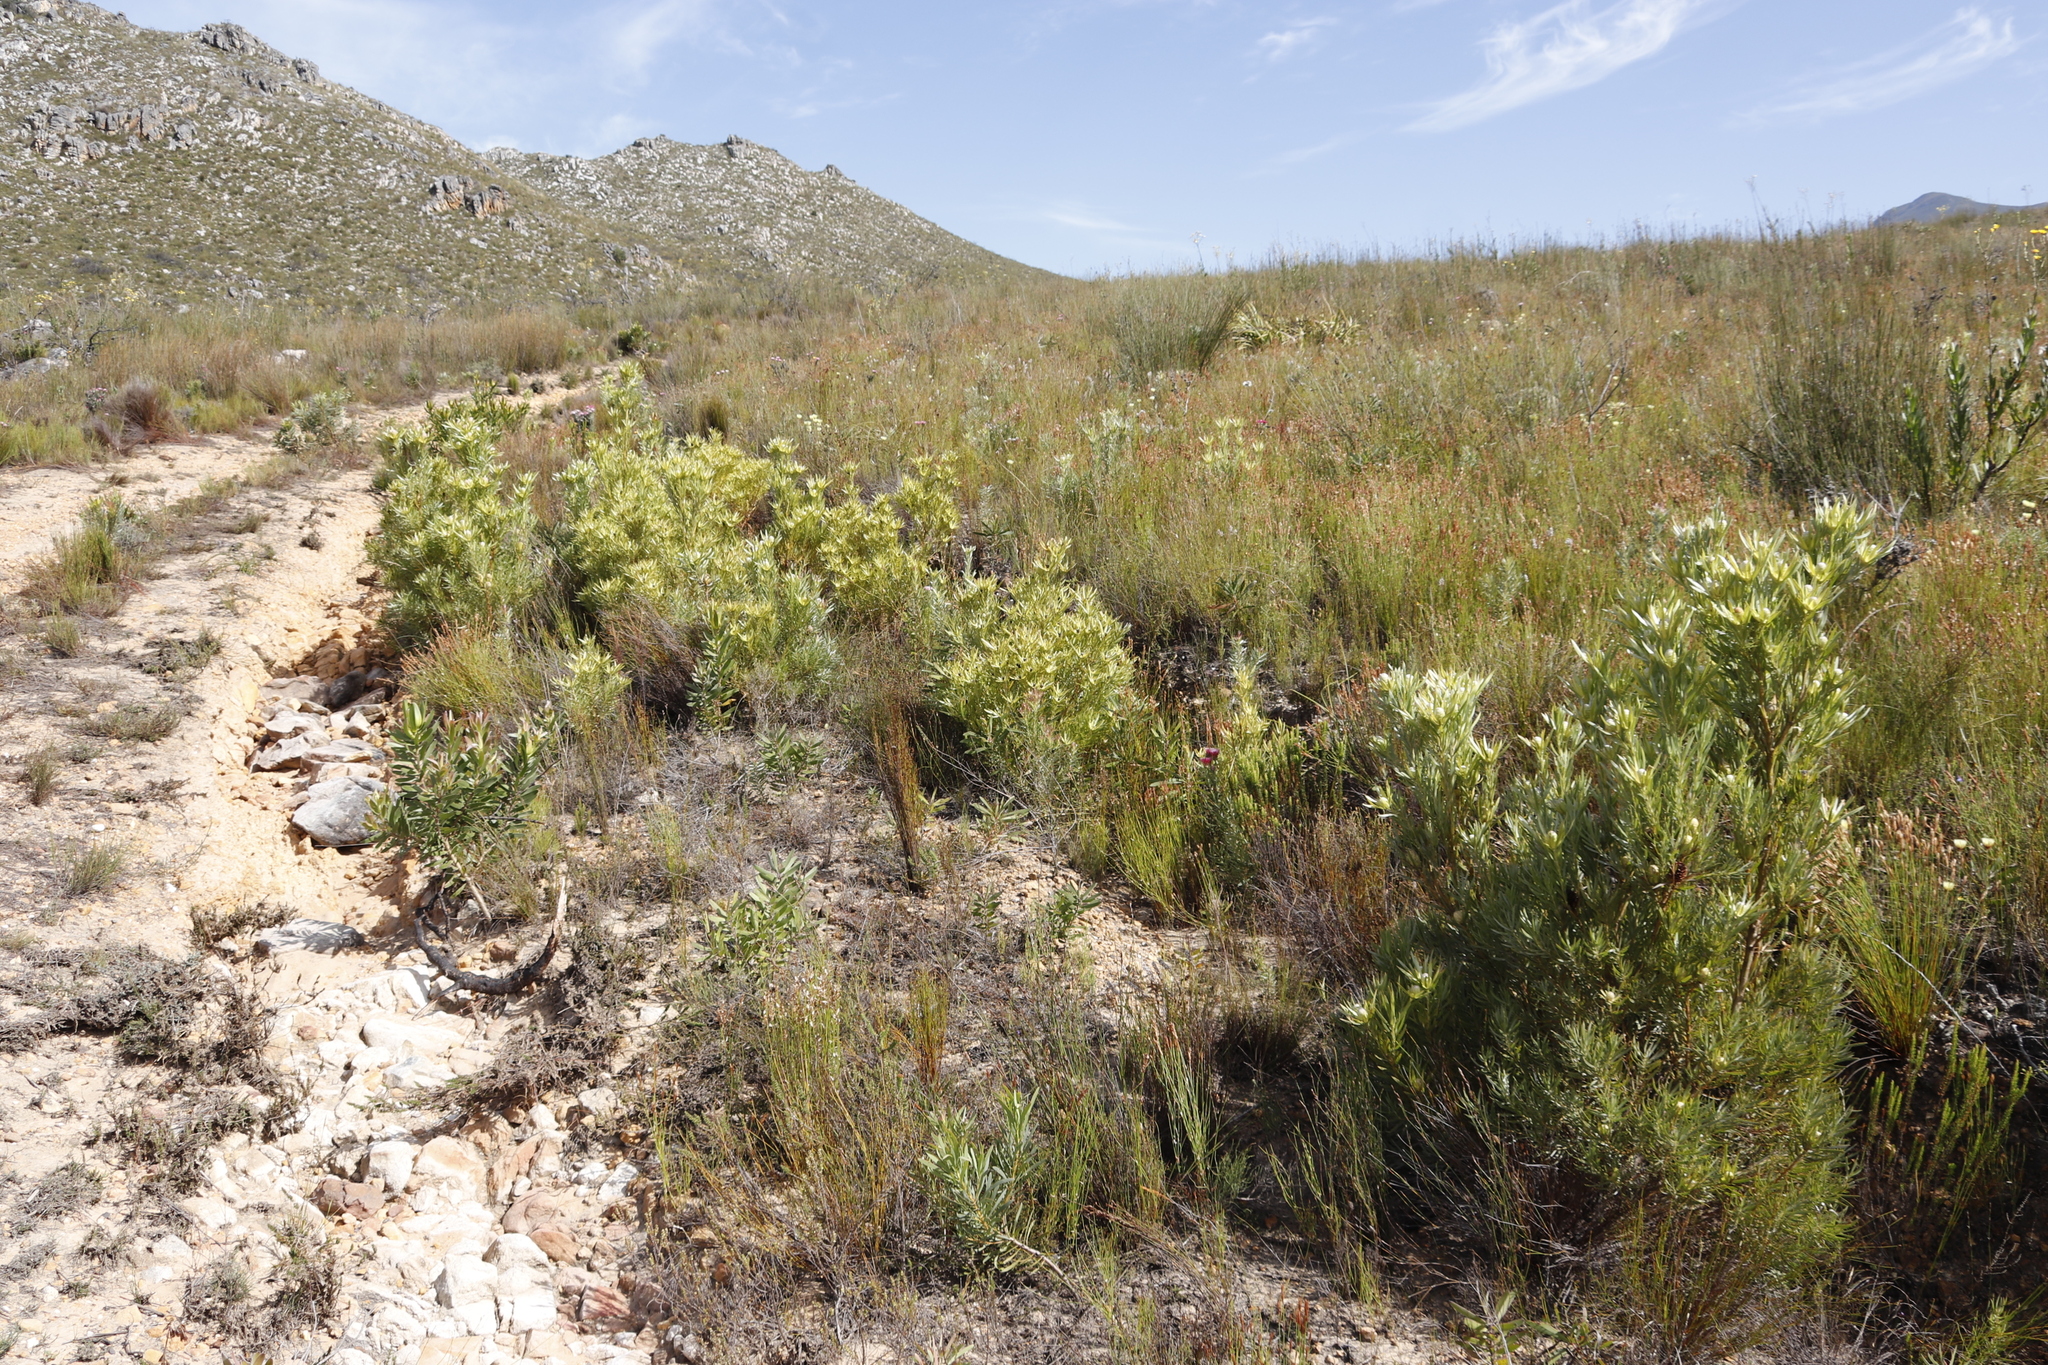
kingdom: Plantae
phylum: Tracheophyta
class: Magnoliopsida
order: Proteales
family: Proteaceae
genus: Leucadendron
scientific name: Leucadendron xanthoconus
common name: Sickle-leaf conebush
